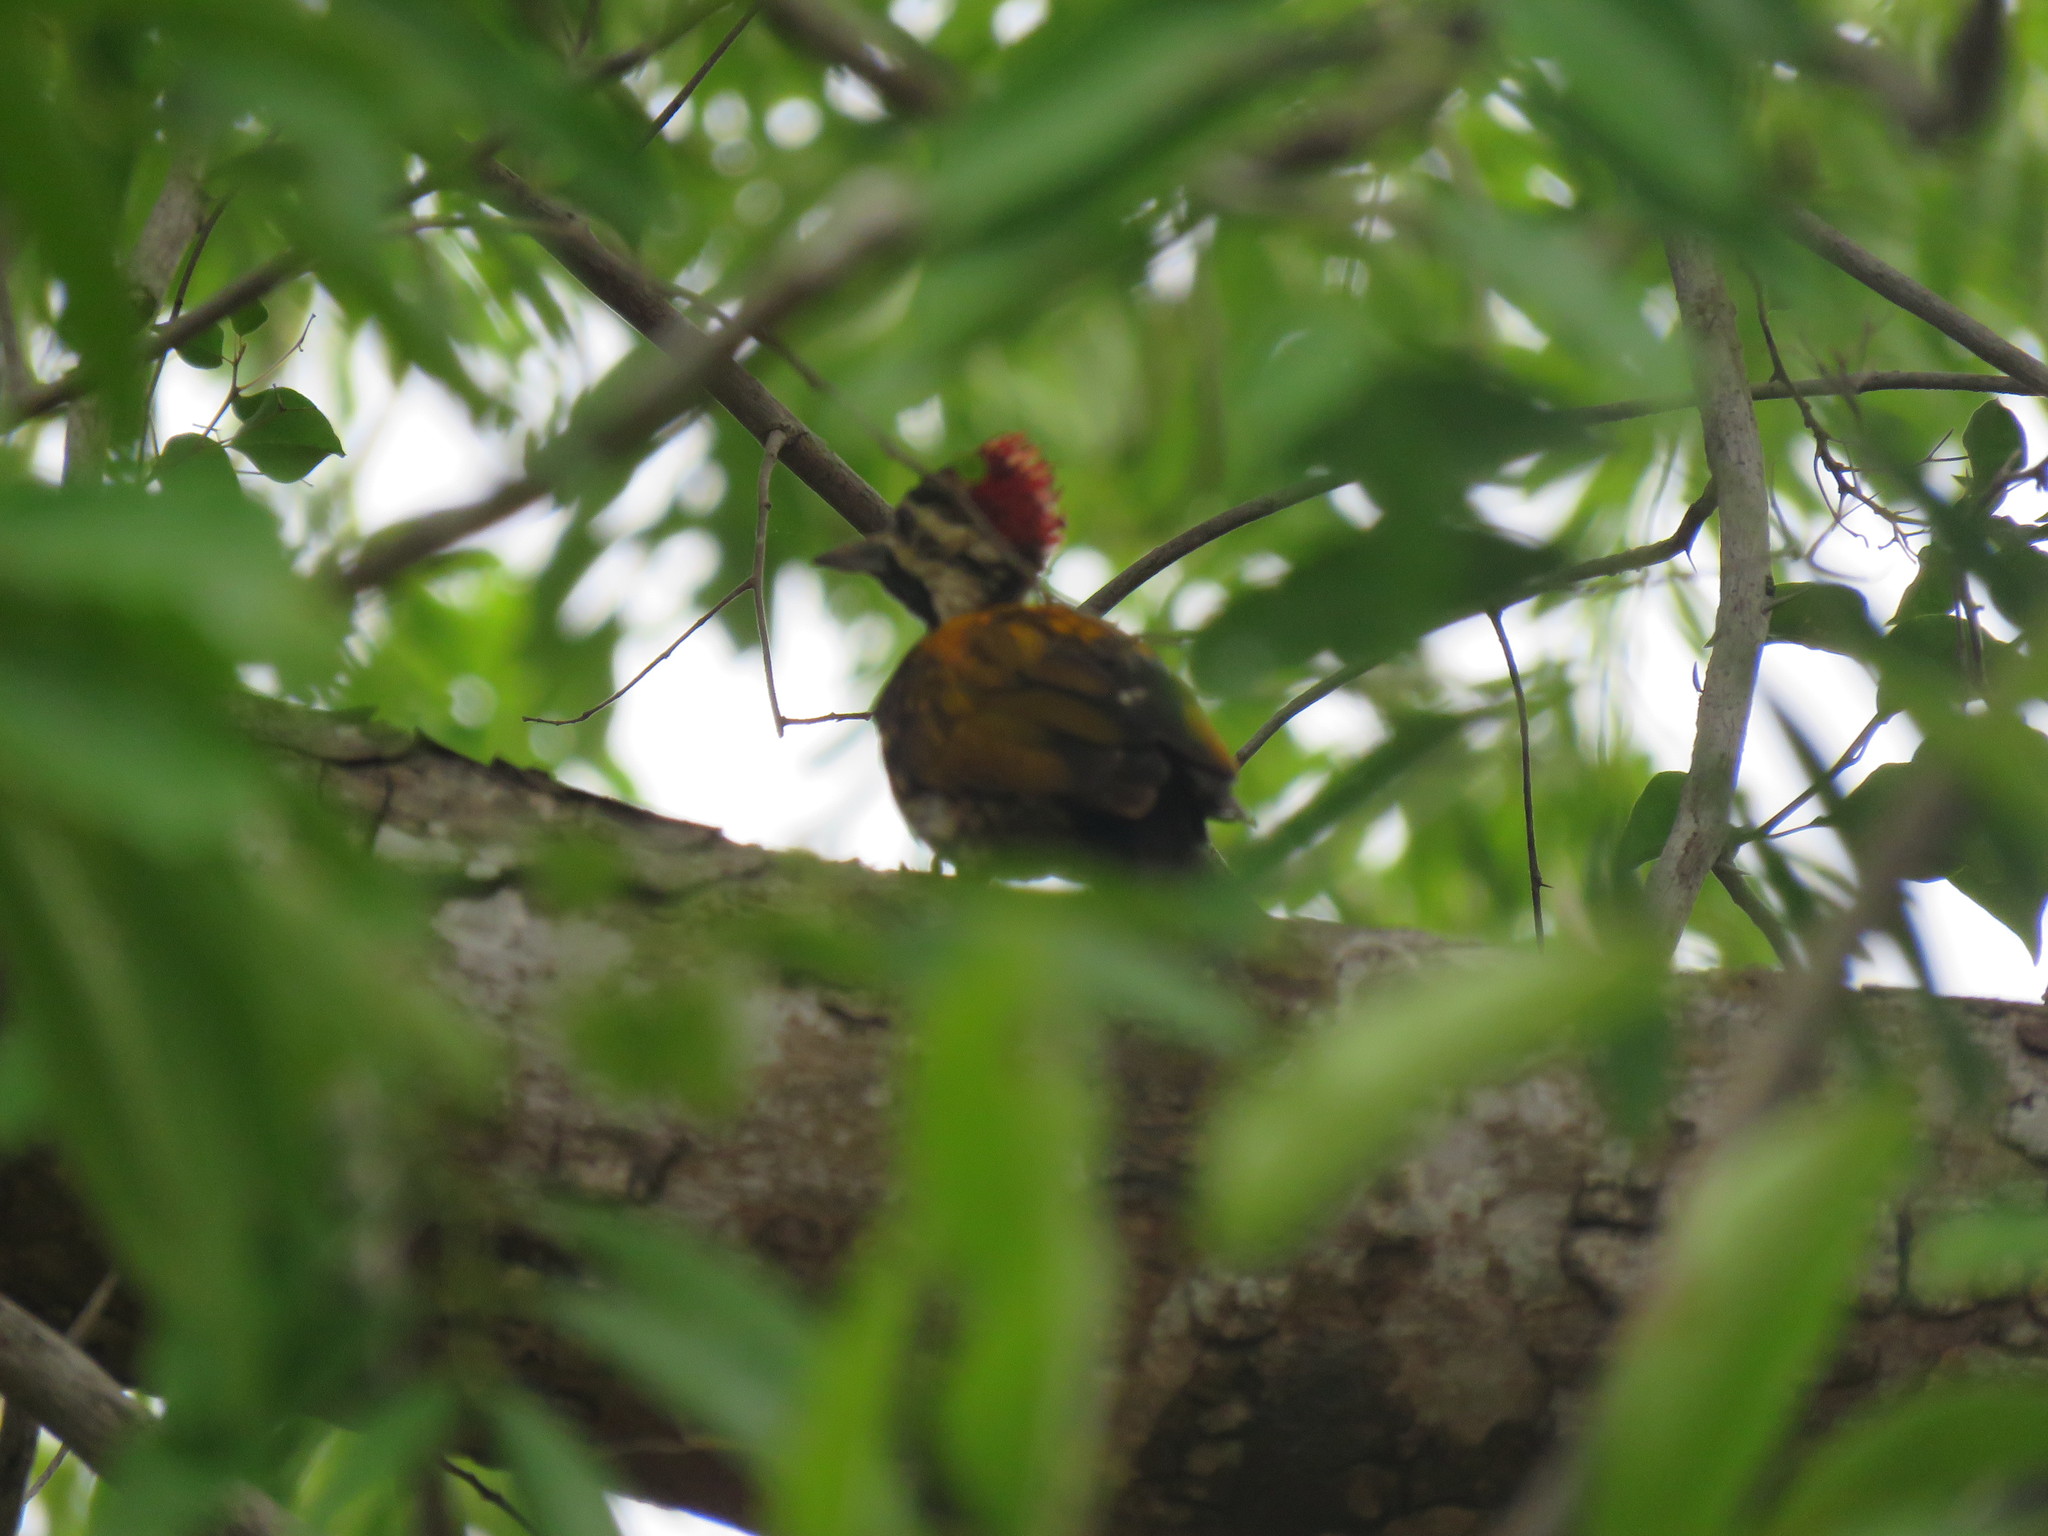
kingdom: Animalia
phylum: Chordata
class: Aves
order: Piciformes
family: Picidae
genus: Dinopium
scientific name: Dinopium benghalense
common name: Black-rumped flameback
